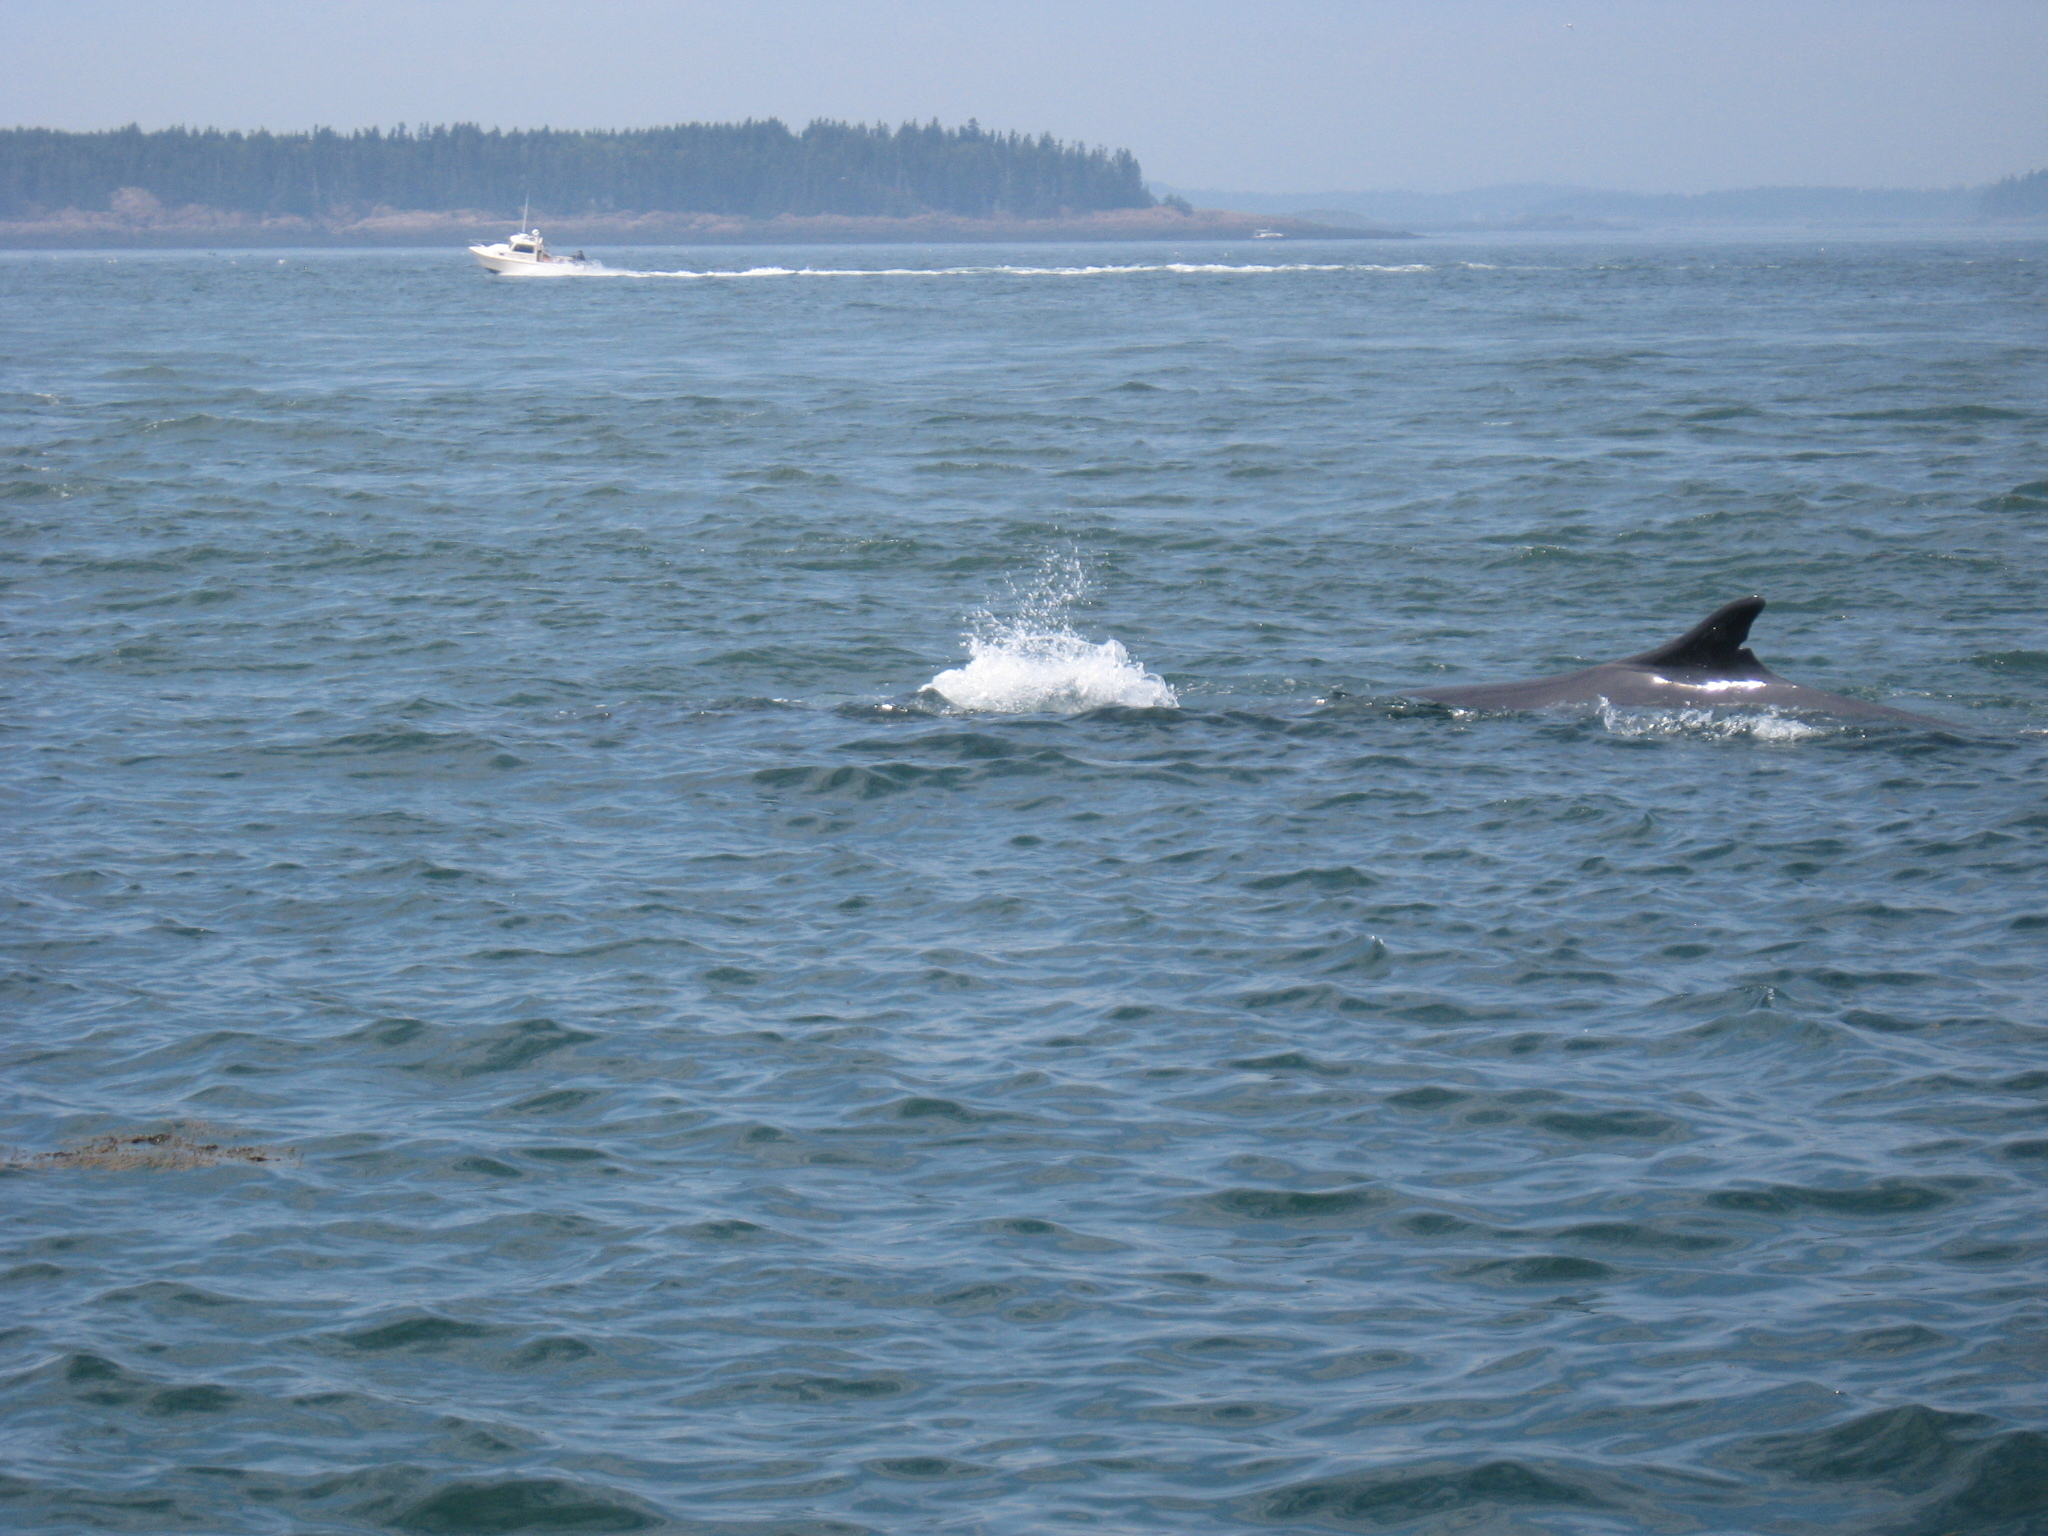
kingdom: Animalia
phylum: Chordata
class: Mammalia
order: Cetacea
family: Balaenopteridae
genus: Balaenoptera
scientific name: Balaenoptera physalus
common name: Fin whale
